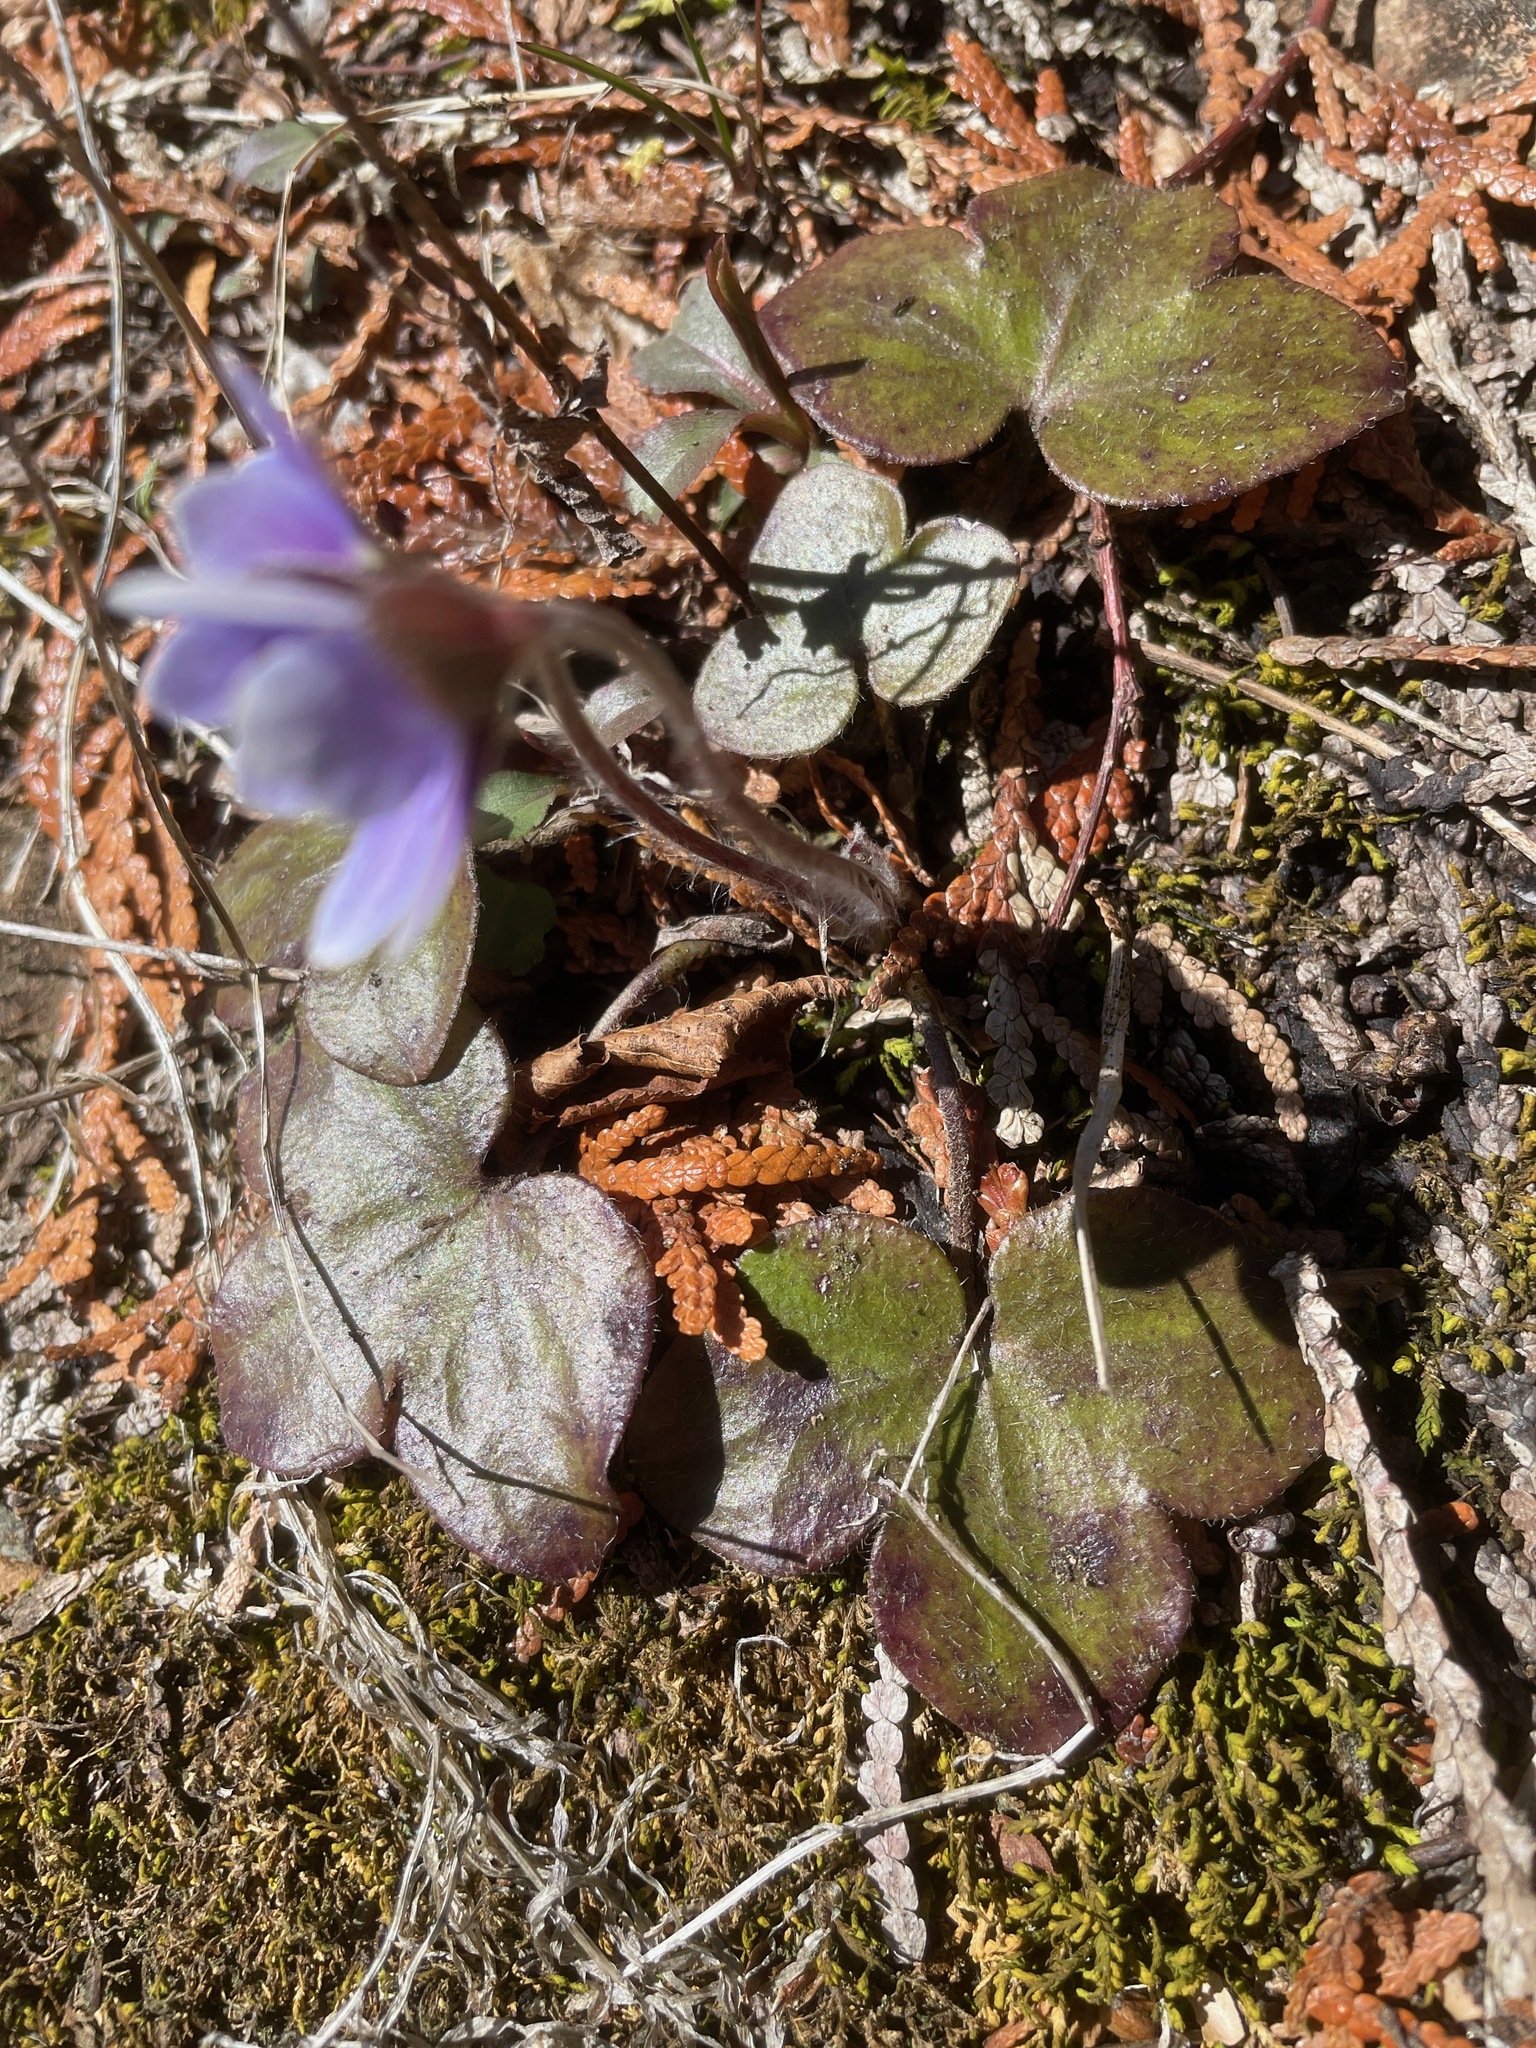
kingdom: Plantae
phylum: Tracheophyta
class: Magnoliopsida
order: Ranunculales
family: Ranunculaceae
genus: Hepatica
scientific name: Hepatica americana
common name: American hepatica
